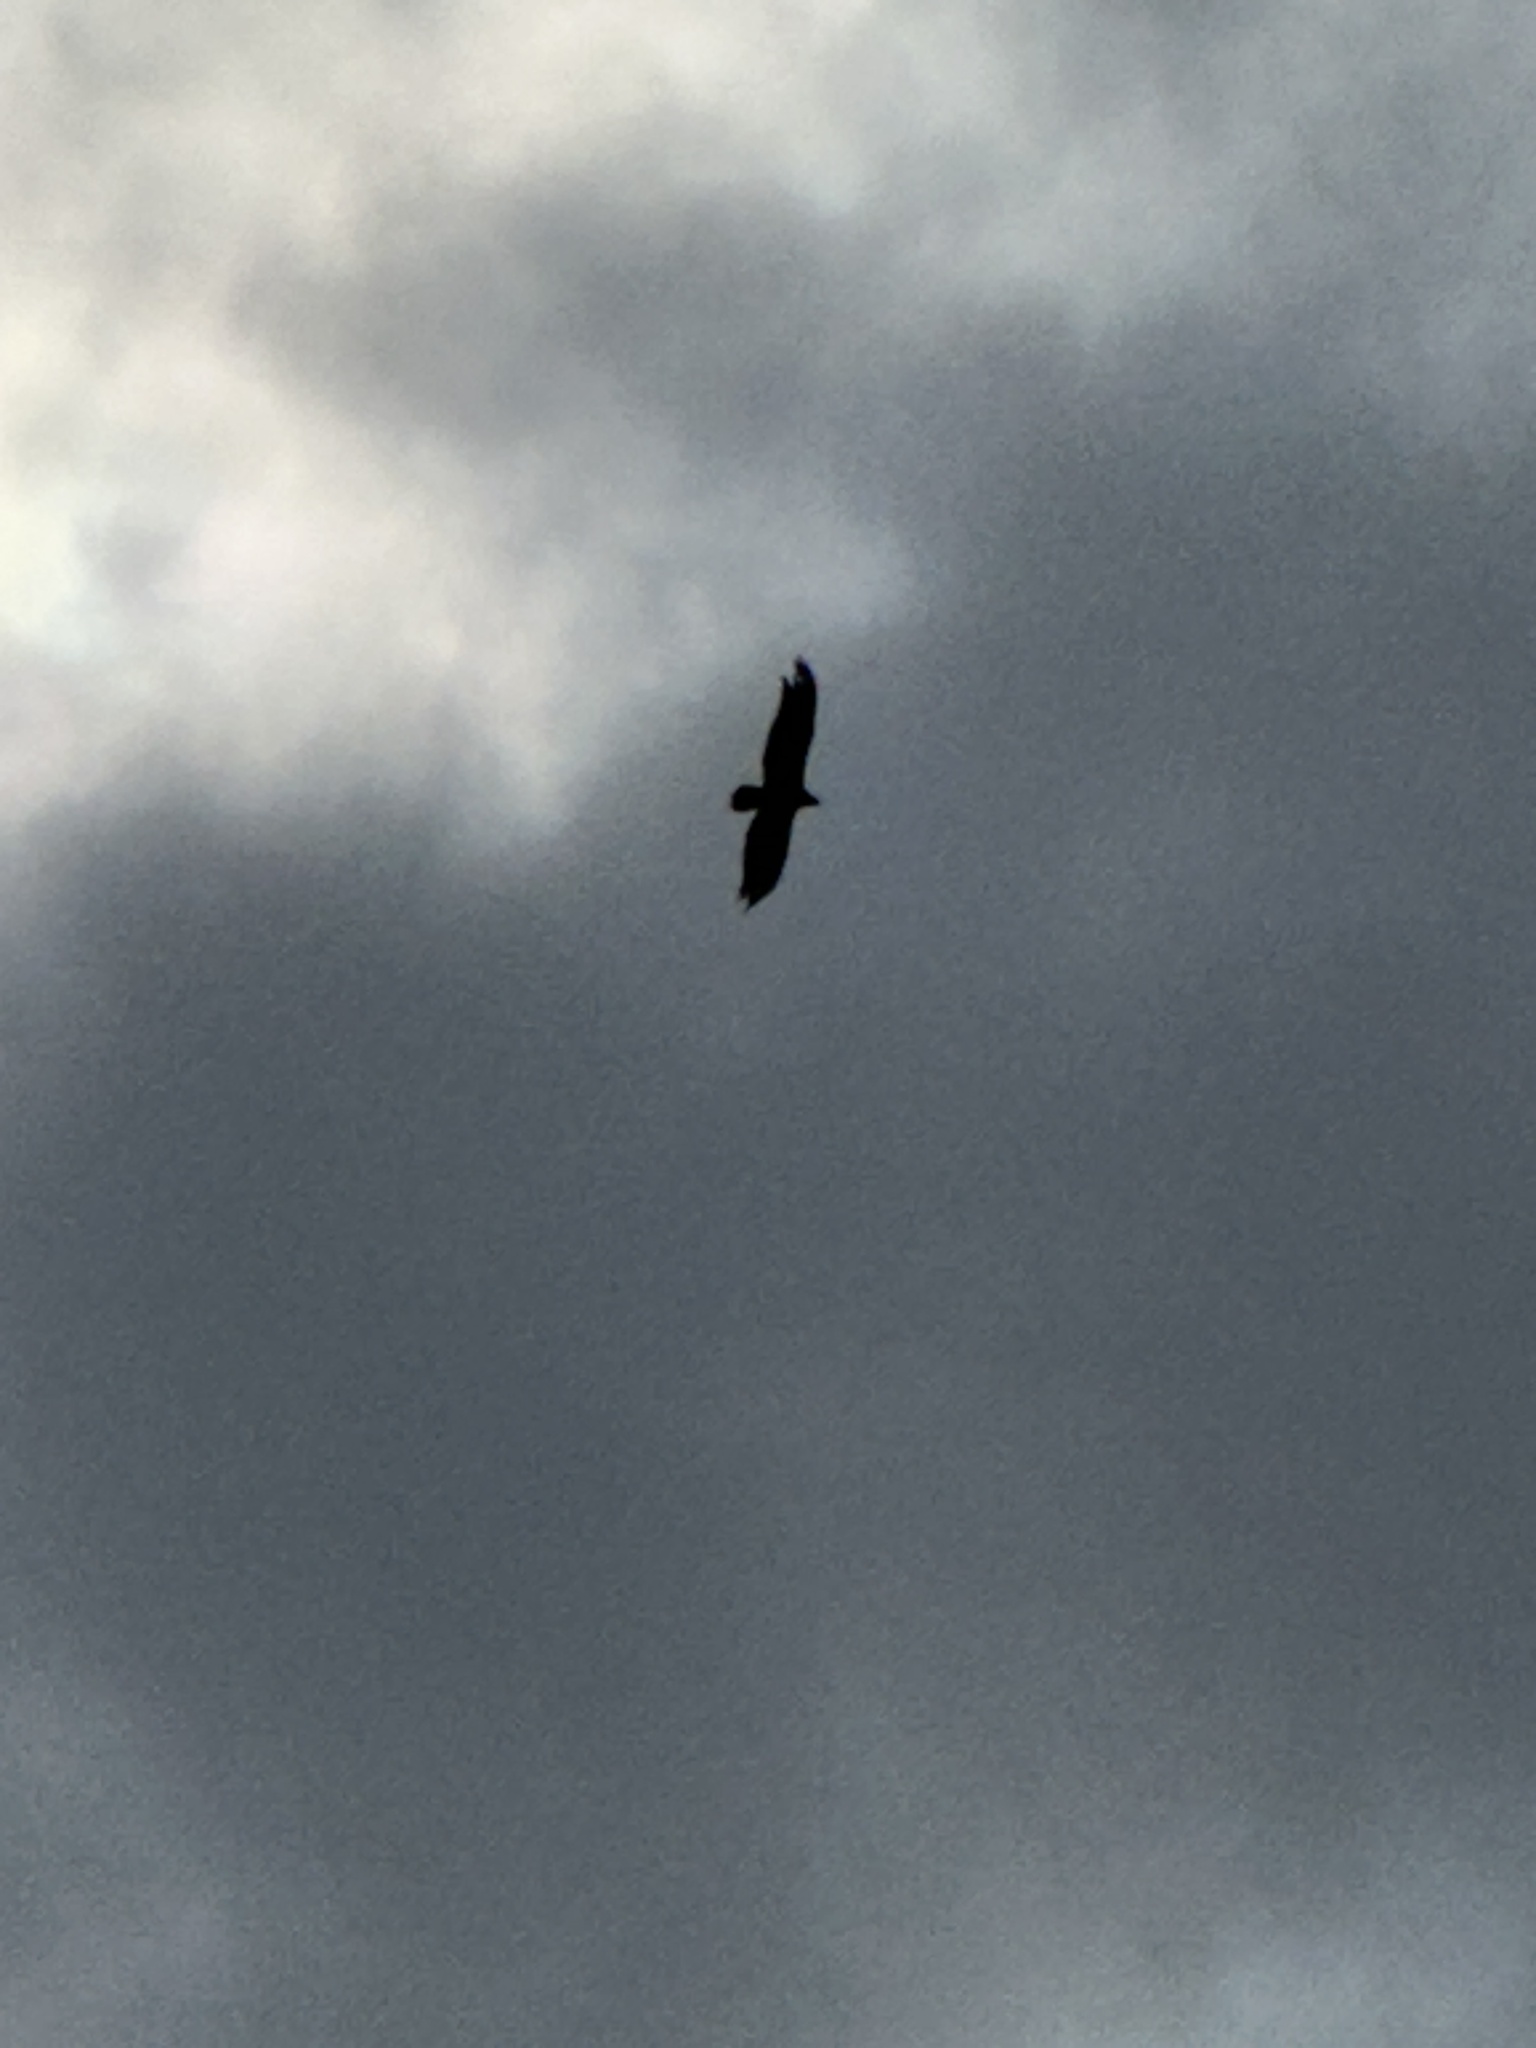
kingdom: Animalia
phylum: Chordata
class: Aves
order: Accipitriformes
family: Cathartidae
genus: Cathartes
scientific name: Cathartes aura
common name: Turkey vulture
